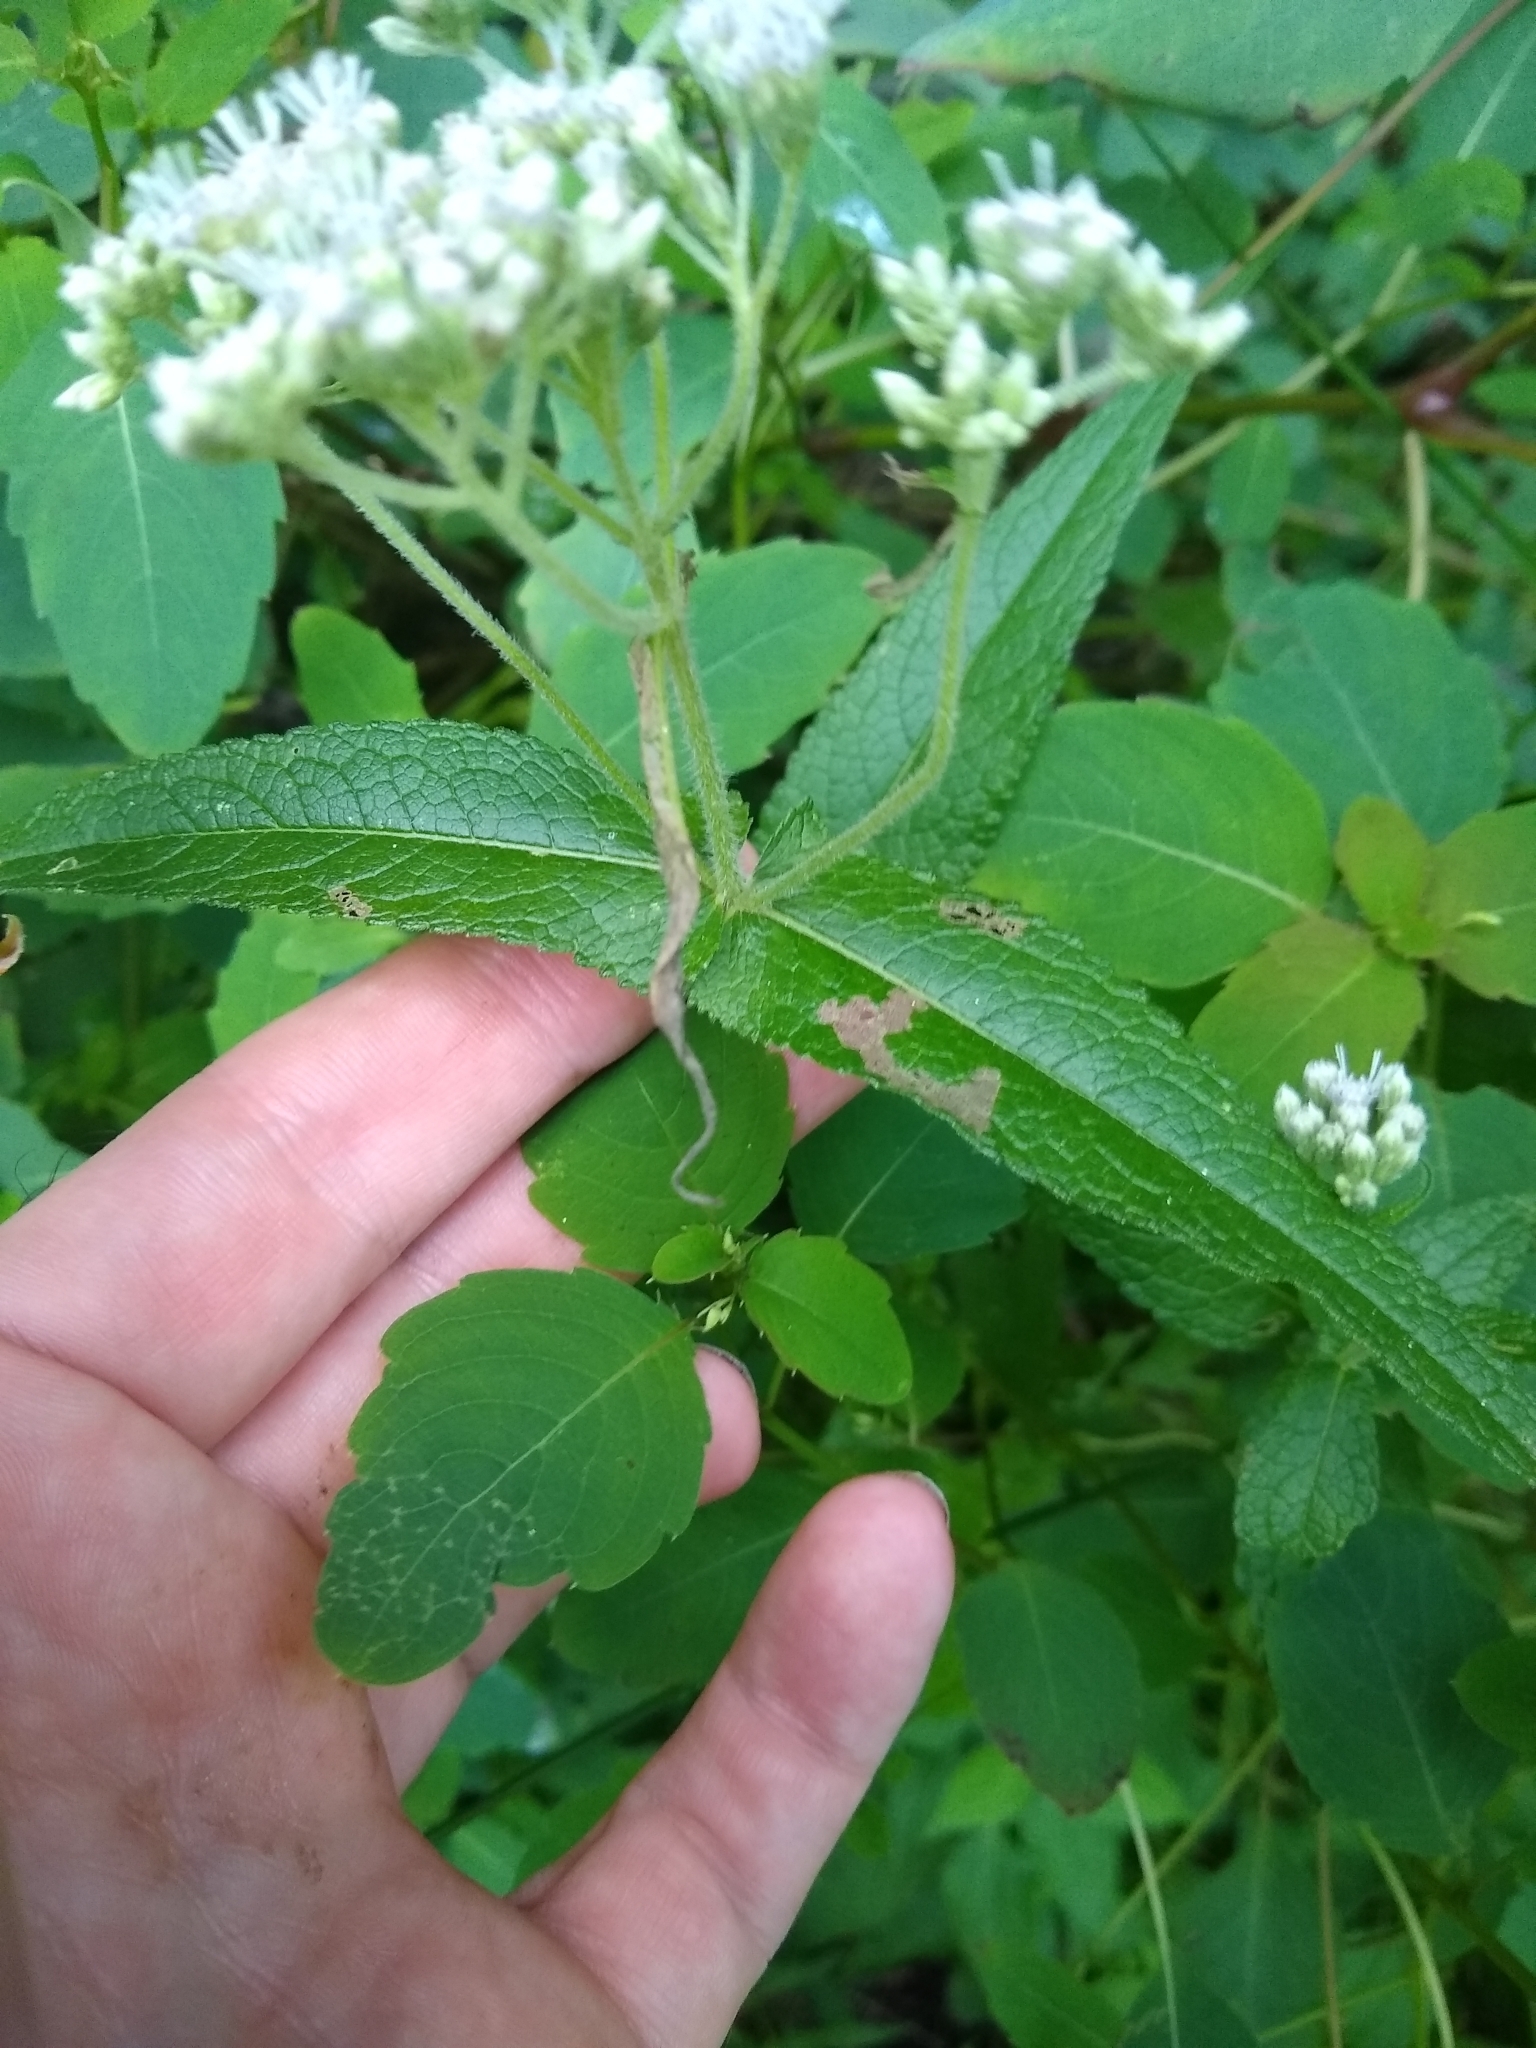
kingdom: Plantae
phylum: Tracheophyta
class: Magnoliopsida
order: Asterales
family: Asteraceae
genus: Eupatorium
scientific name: Eupatorium perfoliatum
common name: Boneset
